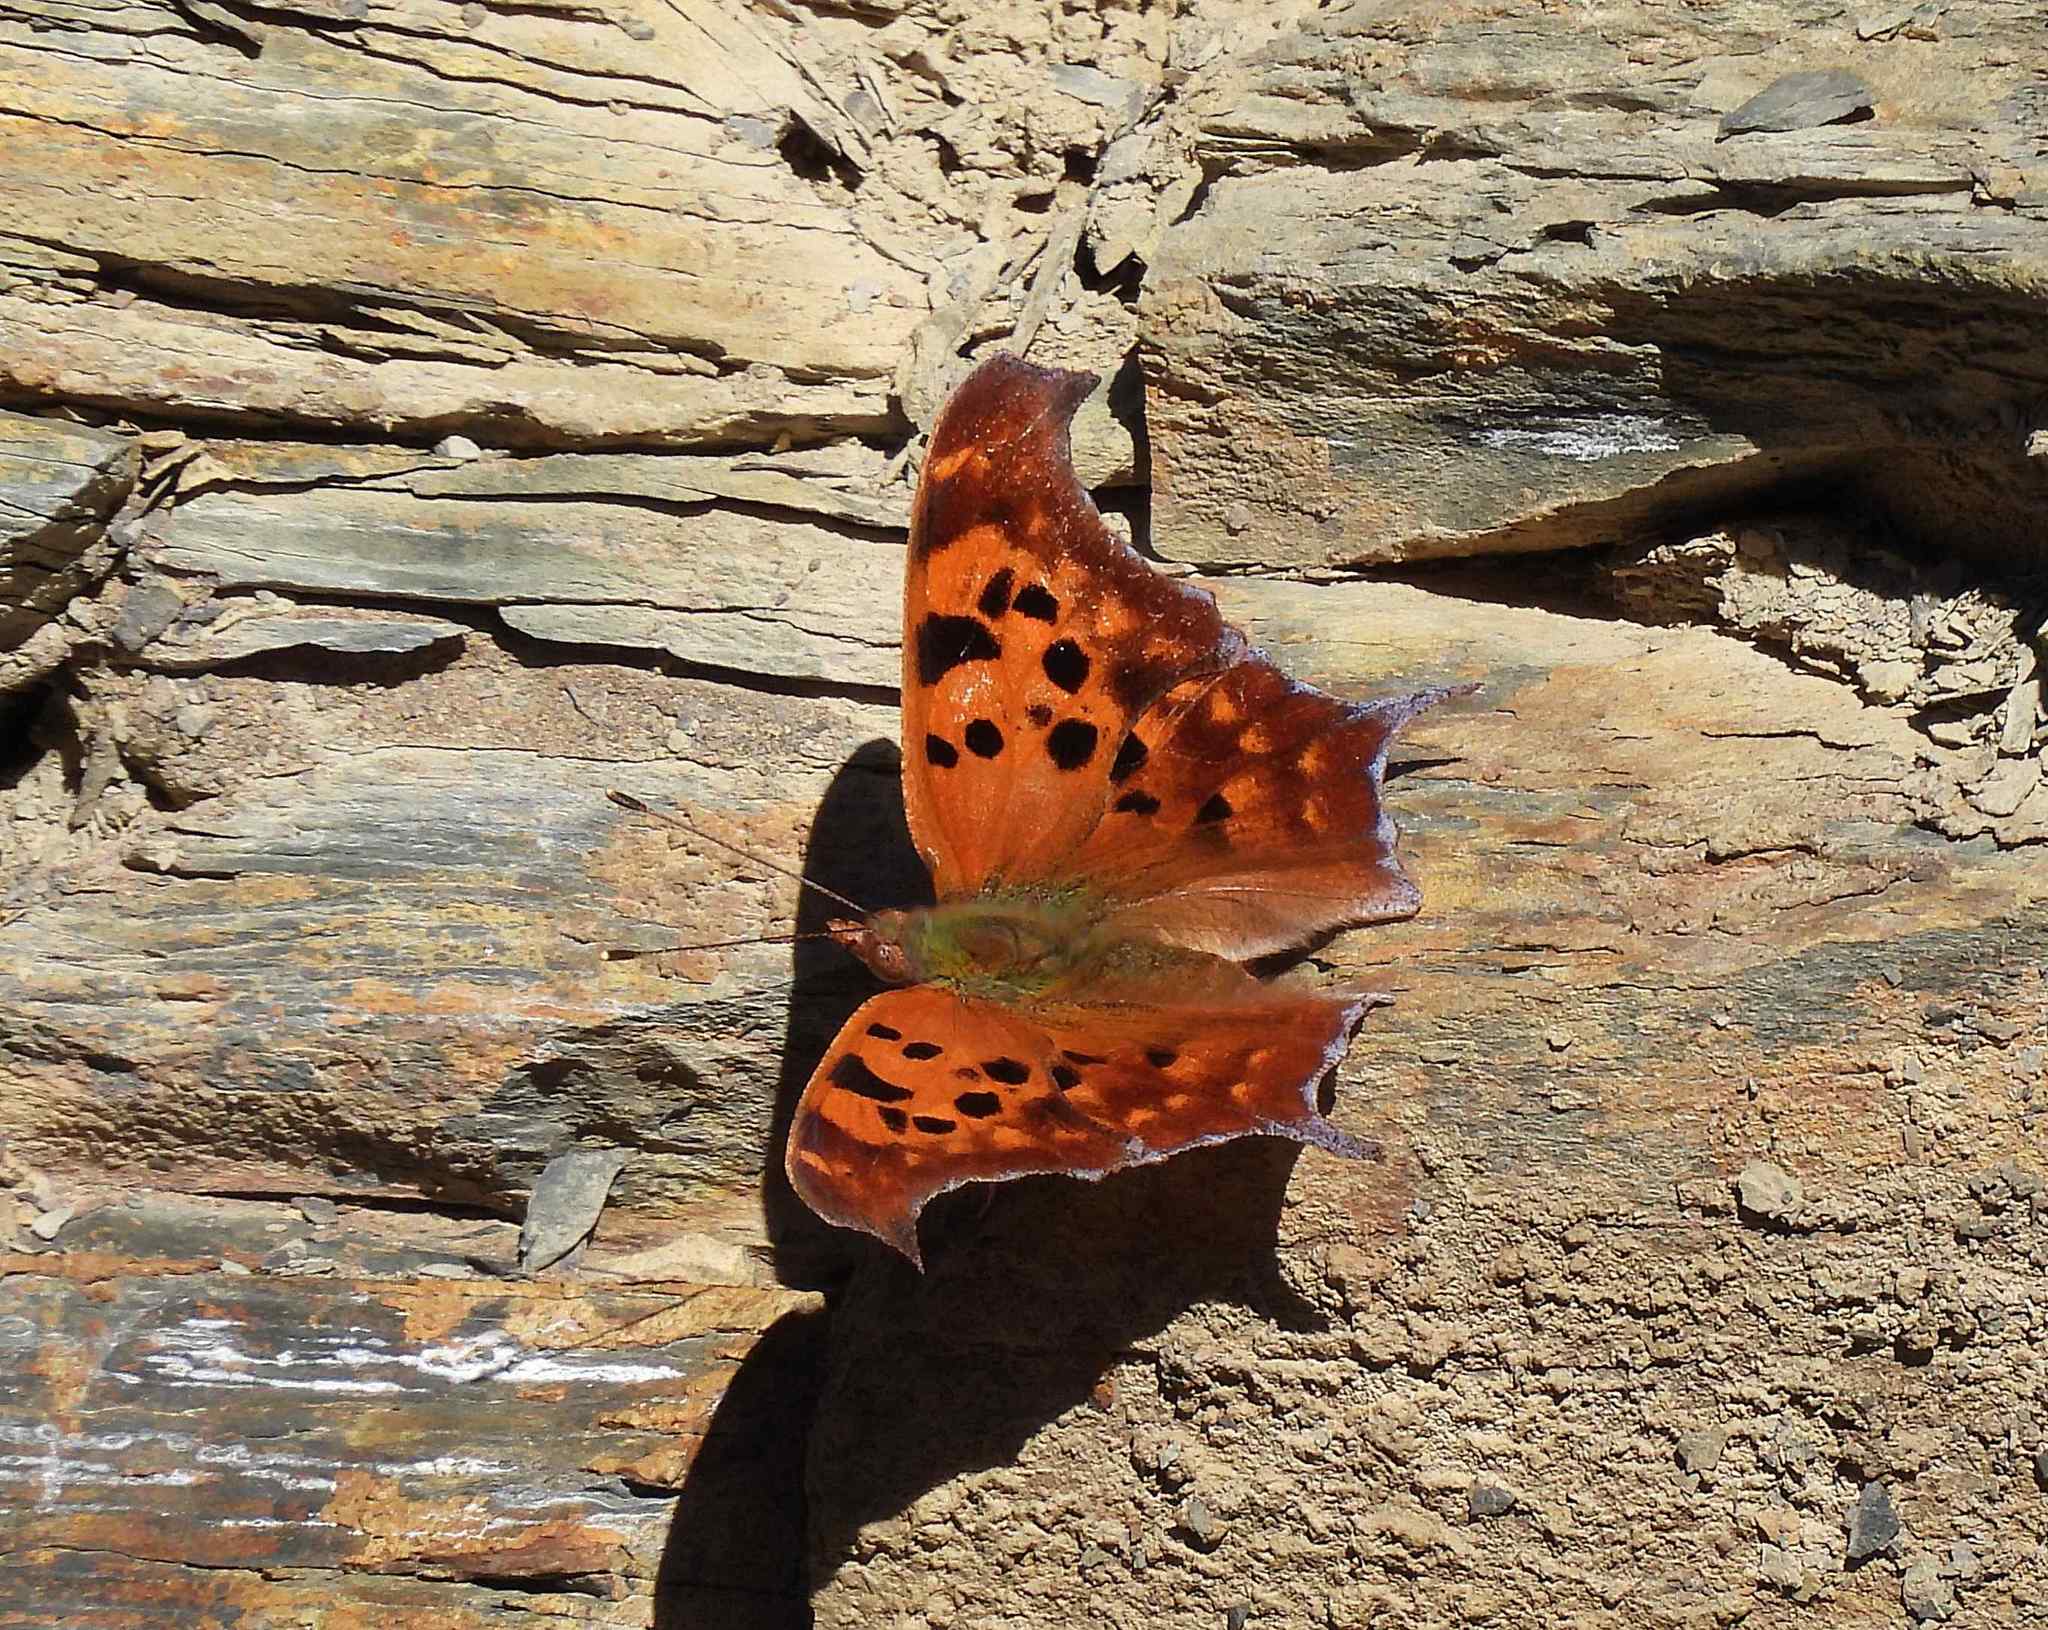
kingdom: Animalia
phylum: Arthropoda
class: Insecta
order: Lepidoptera
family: Nymphalidae
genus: Polygonia
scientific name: Polygonia interrogationis
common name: Question mark
